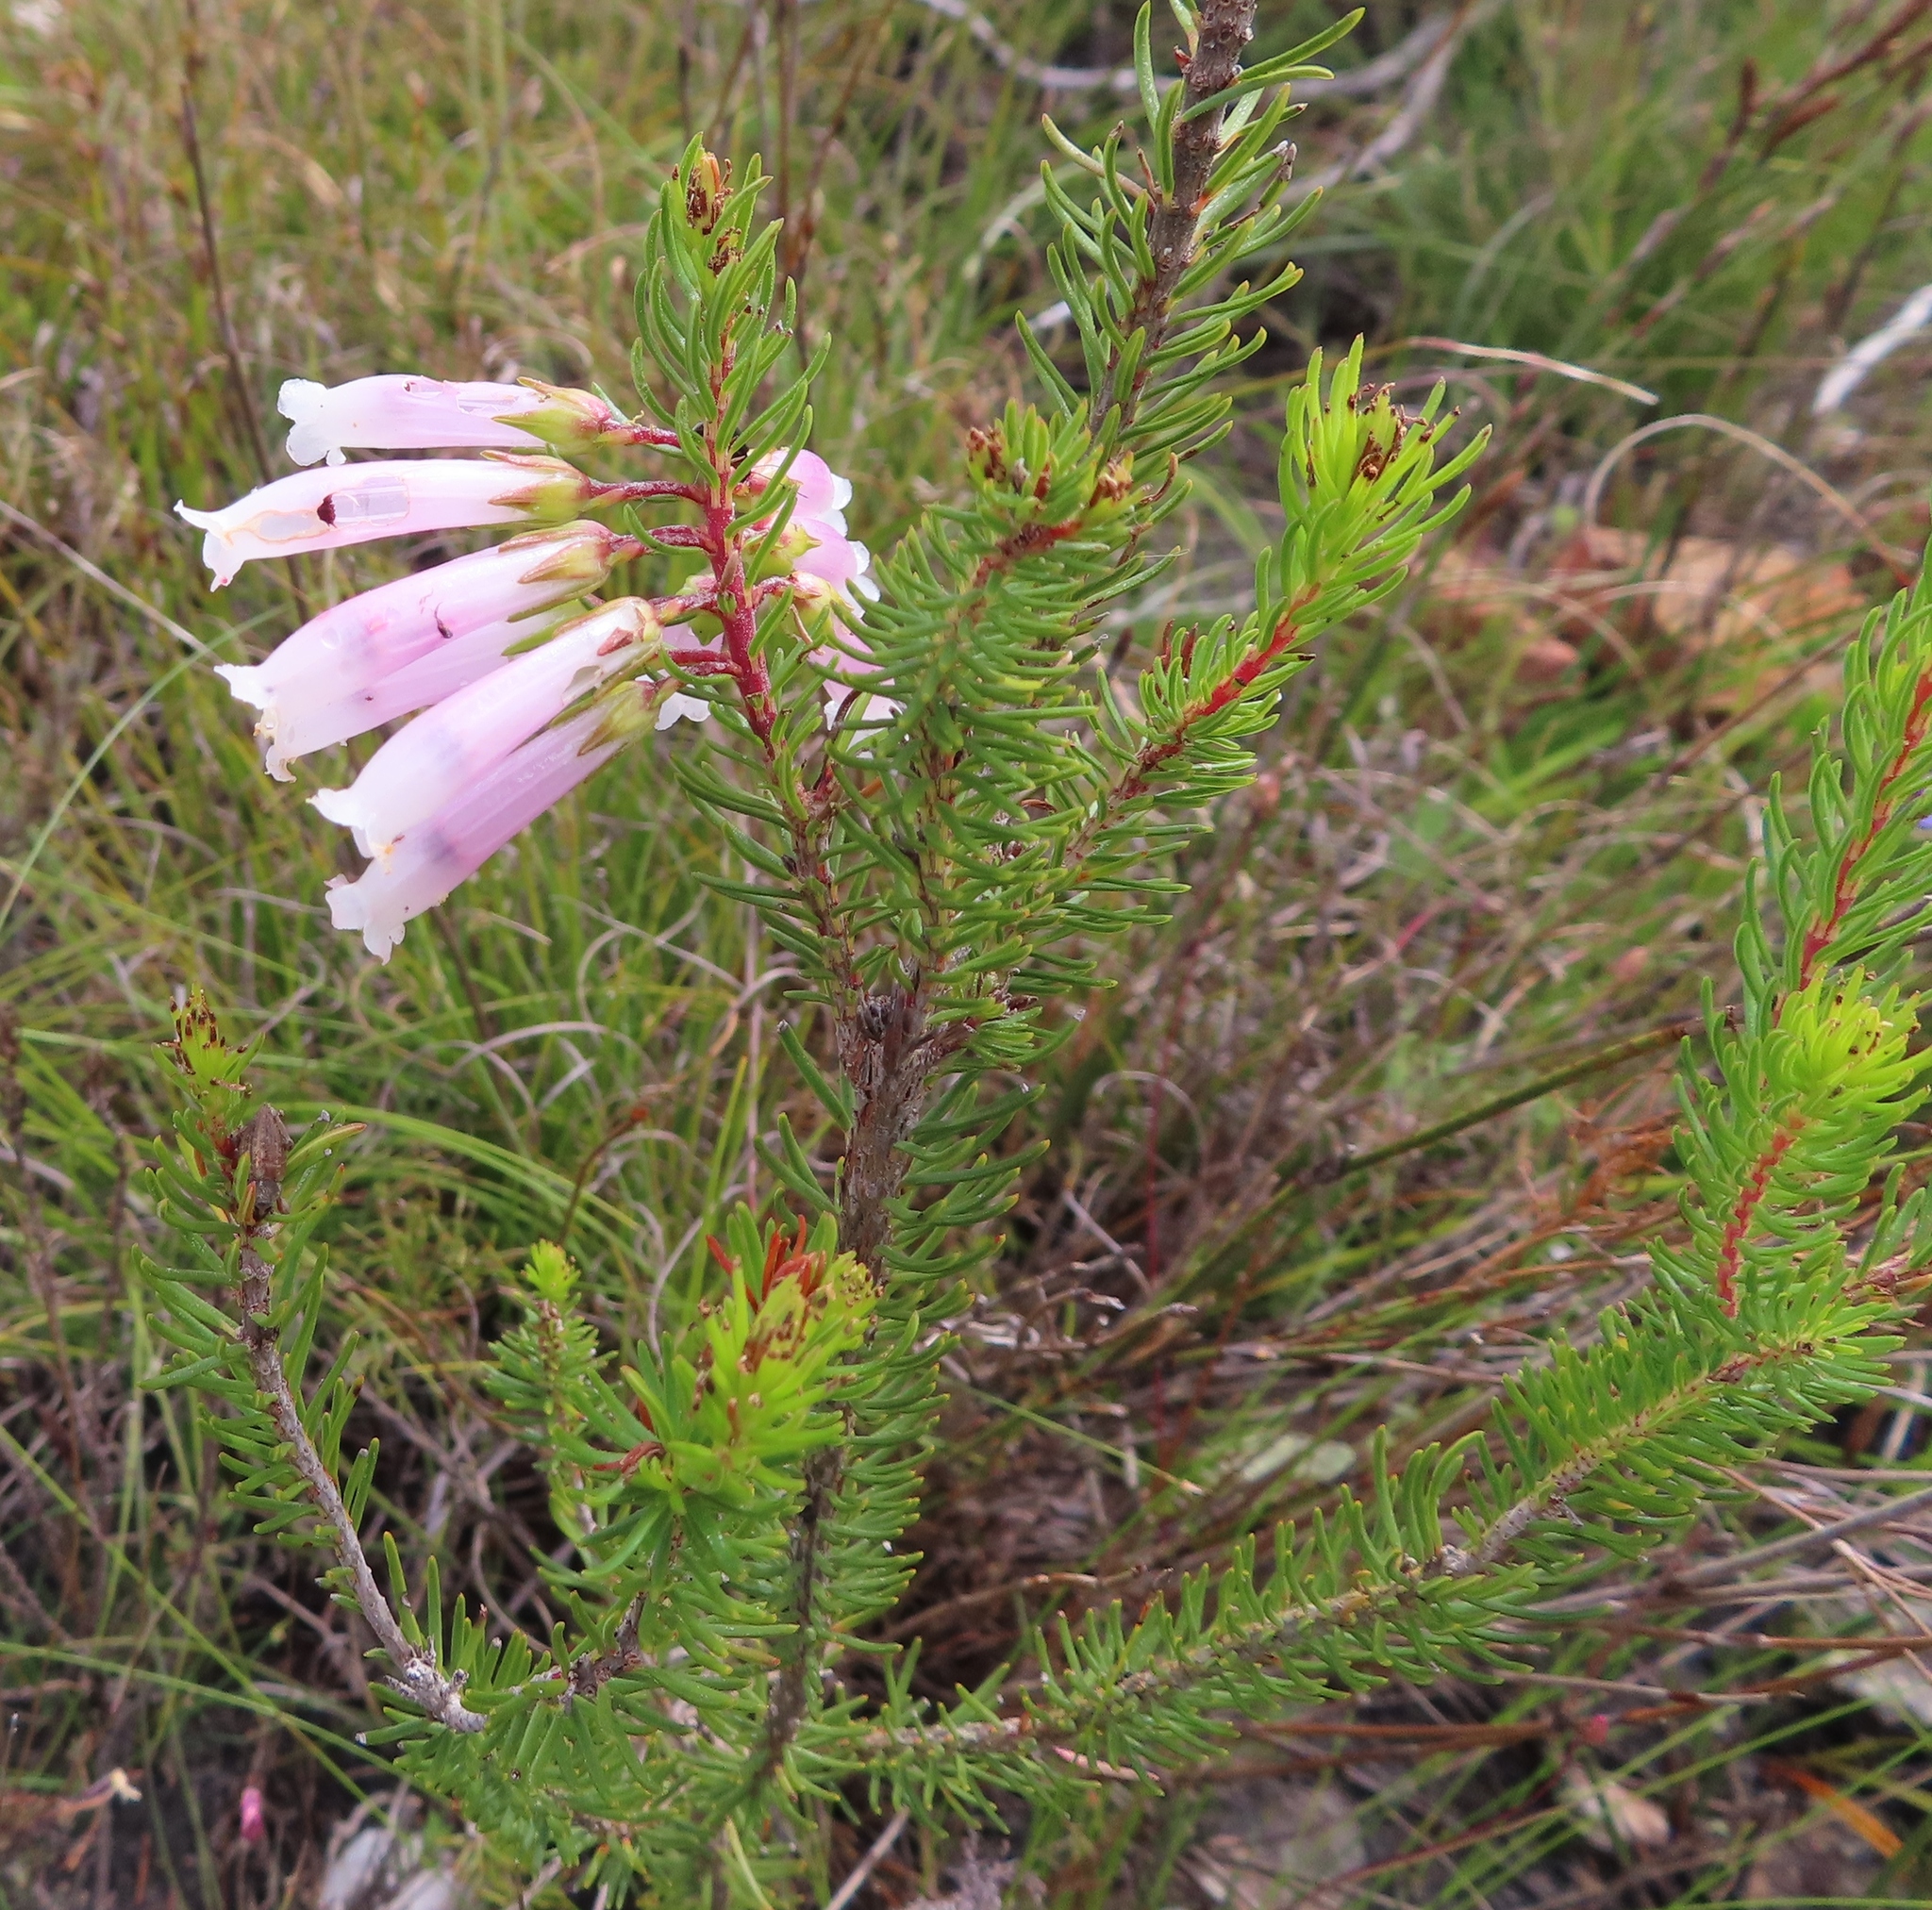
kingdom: Plantae
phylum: Tracheophyta
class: Magnoliopsida
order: Ericales
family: Ericaceae
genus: Erica
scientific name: Erica regia
